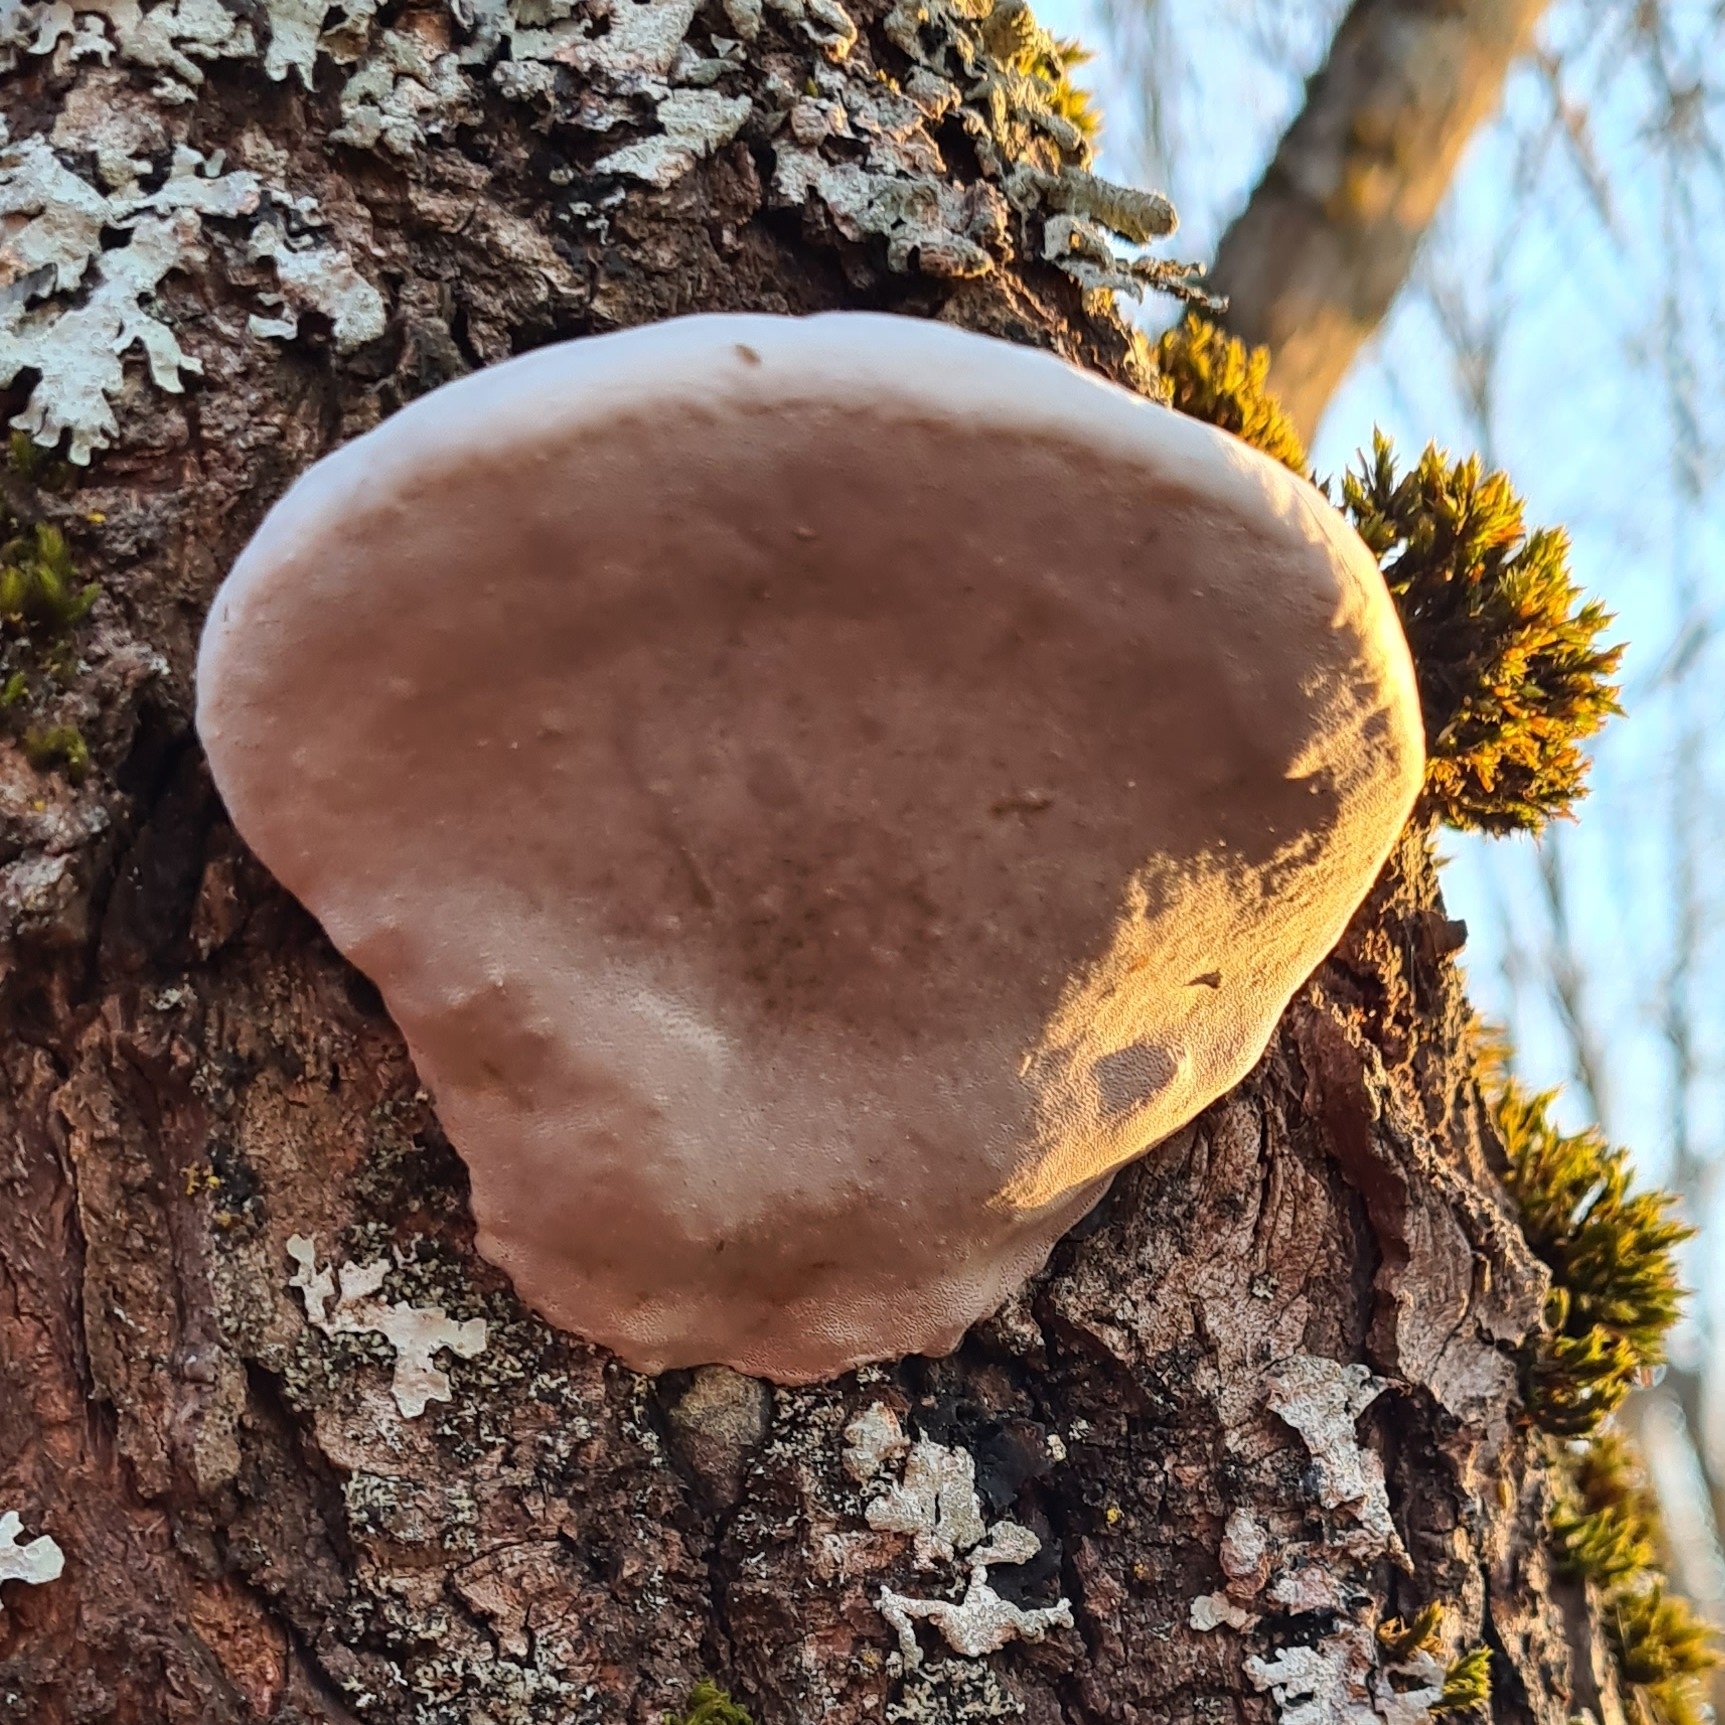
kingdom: Fungi
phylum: Basidiomycota
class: Agaricomycetes
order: Hymenochaetales
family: Hymenochaetaceae
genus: Phellinus
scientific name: Phellinus igniarius
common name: Willow bracket
